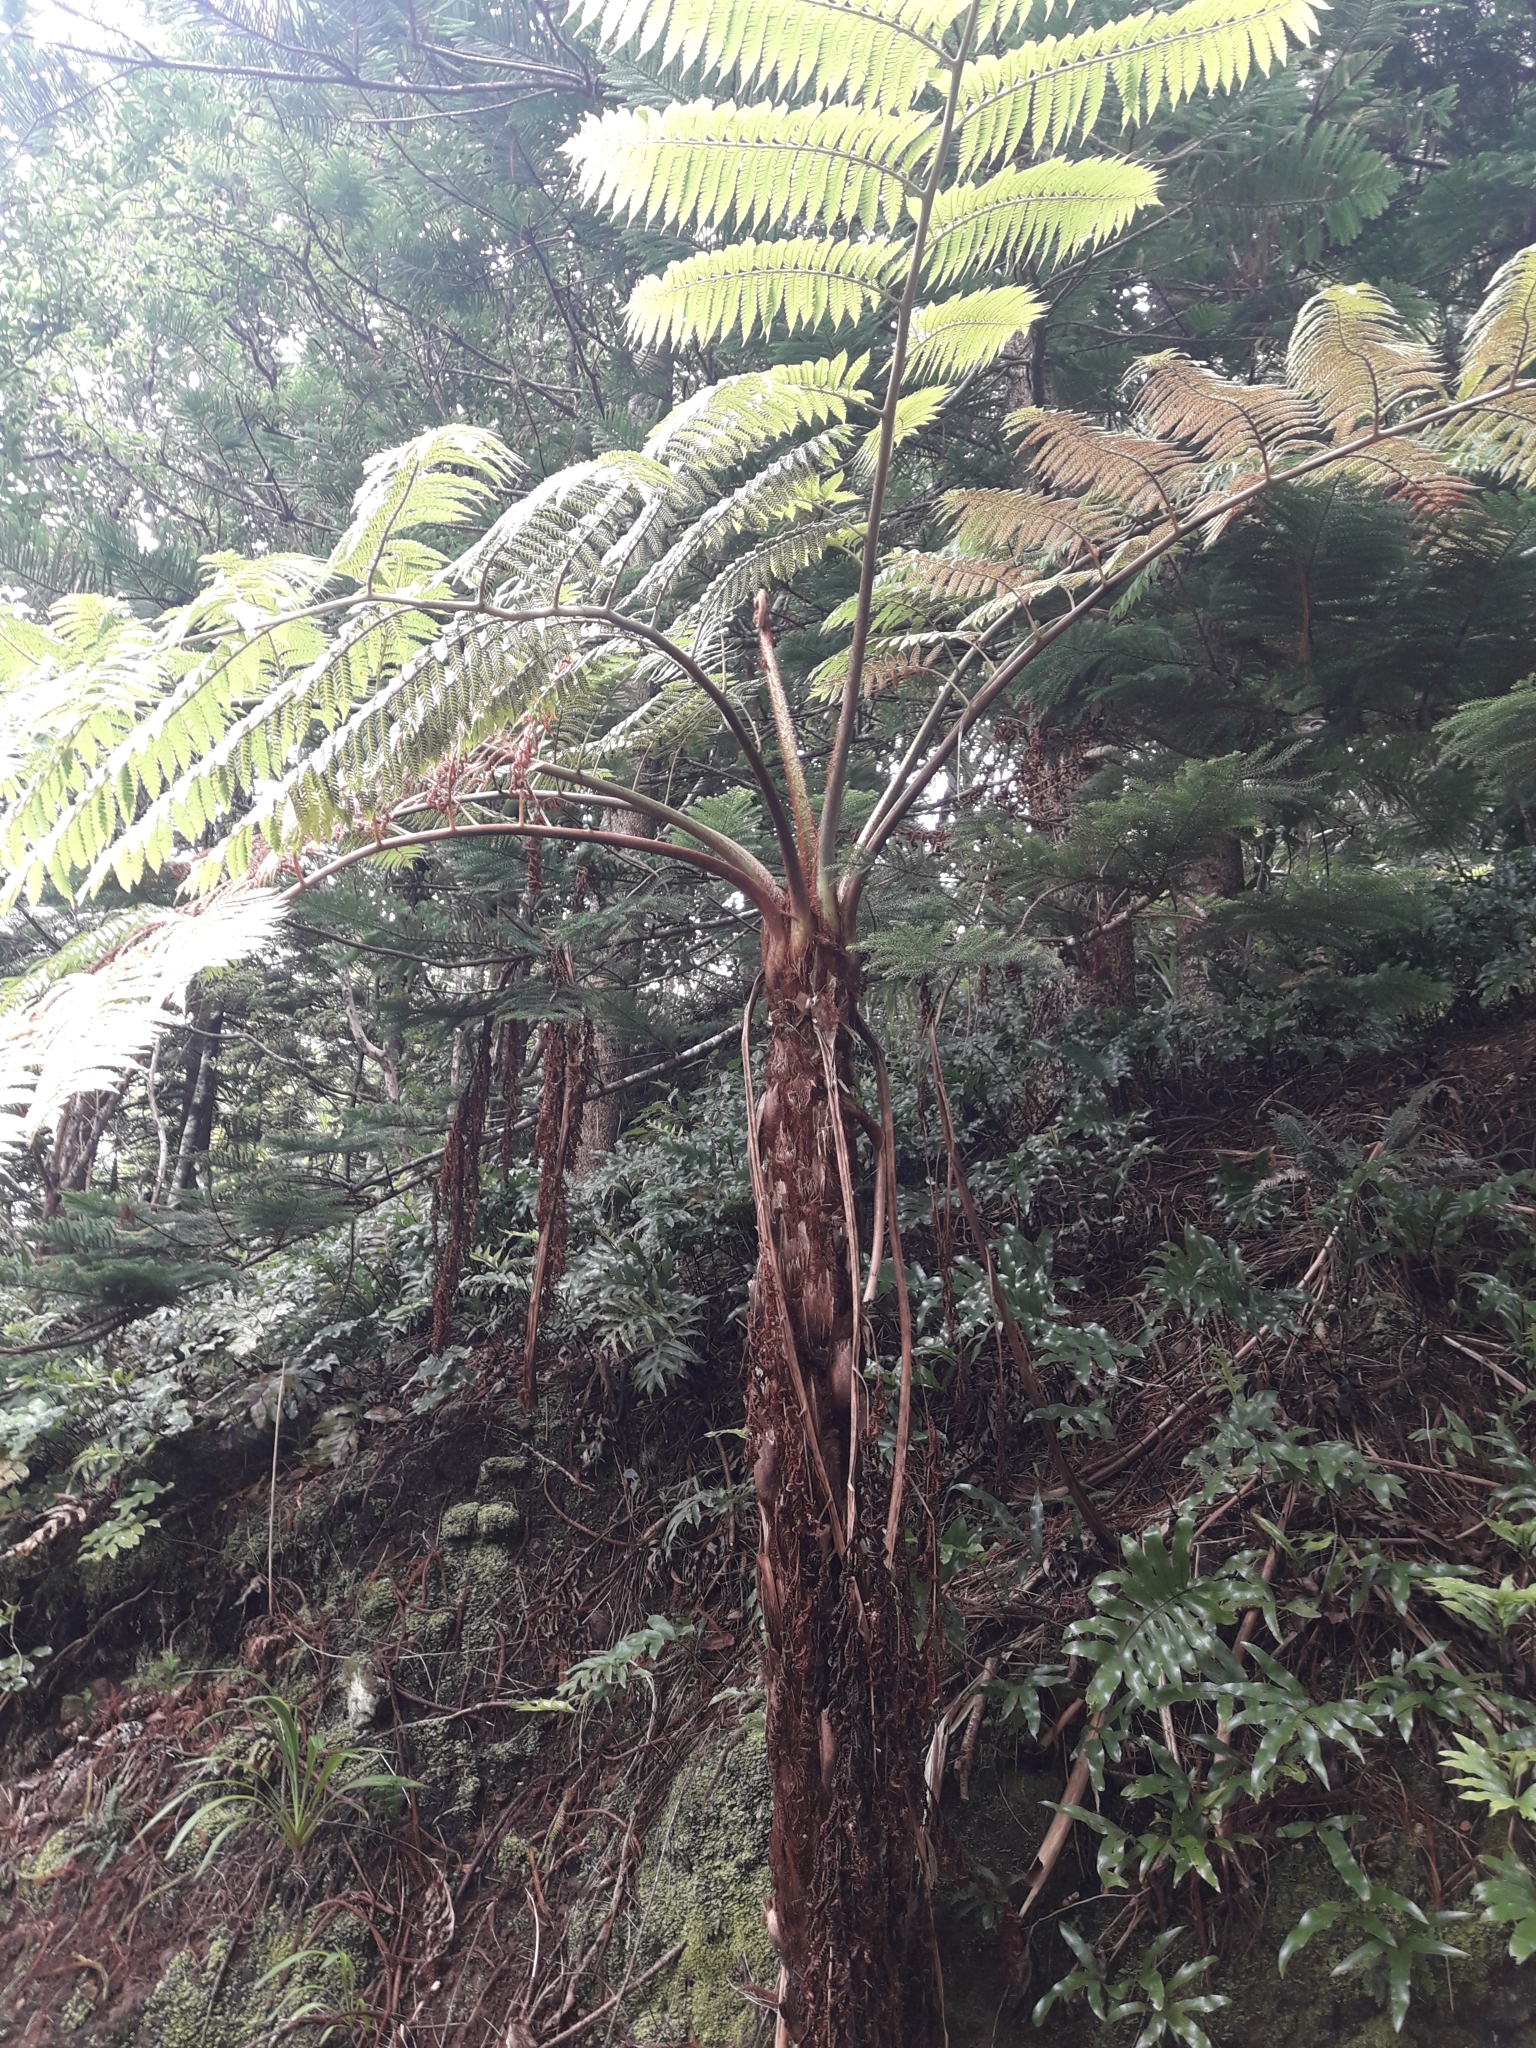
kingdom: Plantae
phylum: Tracheophyta
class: Polypodiopsida
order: Cyatheales
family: Cyatheaceae
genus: Sphaeropteris
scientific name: Sphaeropteris excelsa
